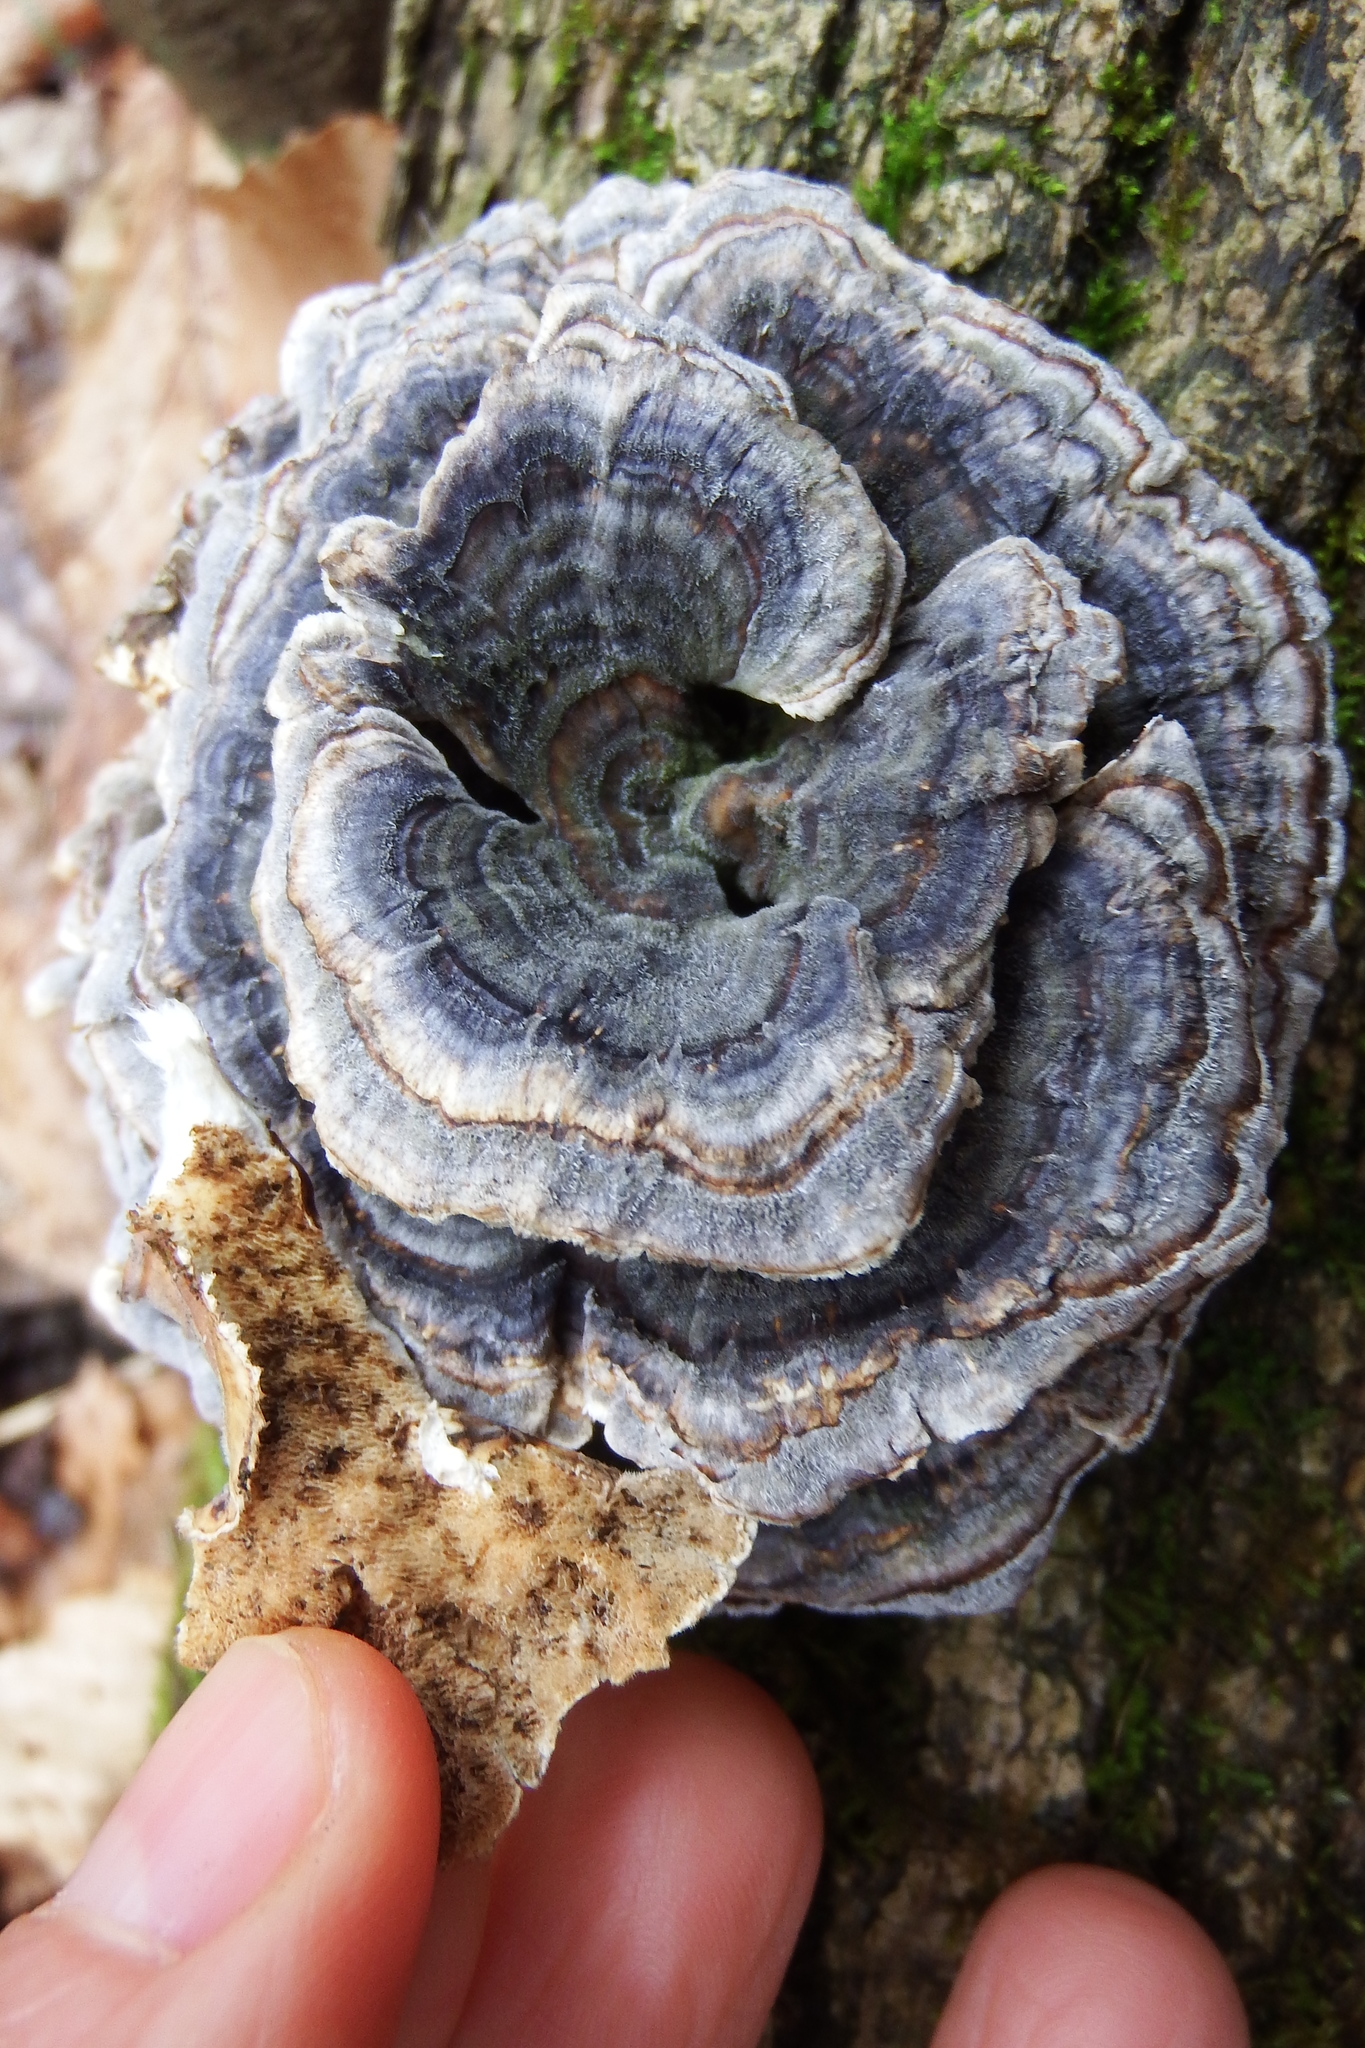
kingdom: Fungi
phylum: Basidiomycota
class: Agaricomycetes
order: Polyporales
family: Polyporaceae
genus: Trametes
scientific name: Trametes versicolor
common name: Turkeytail
